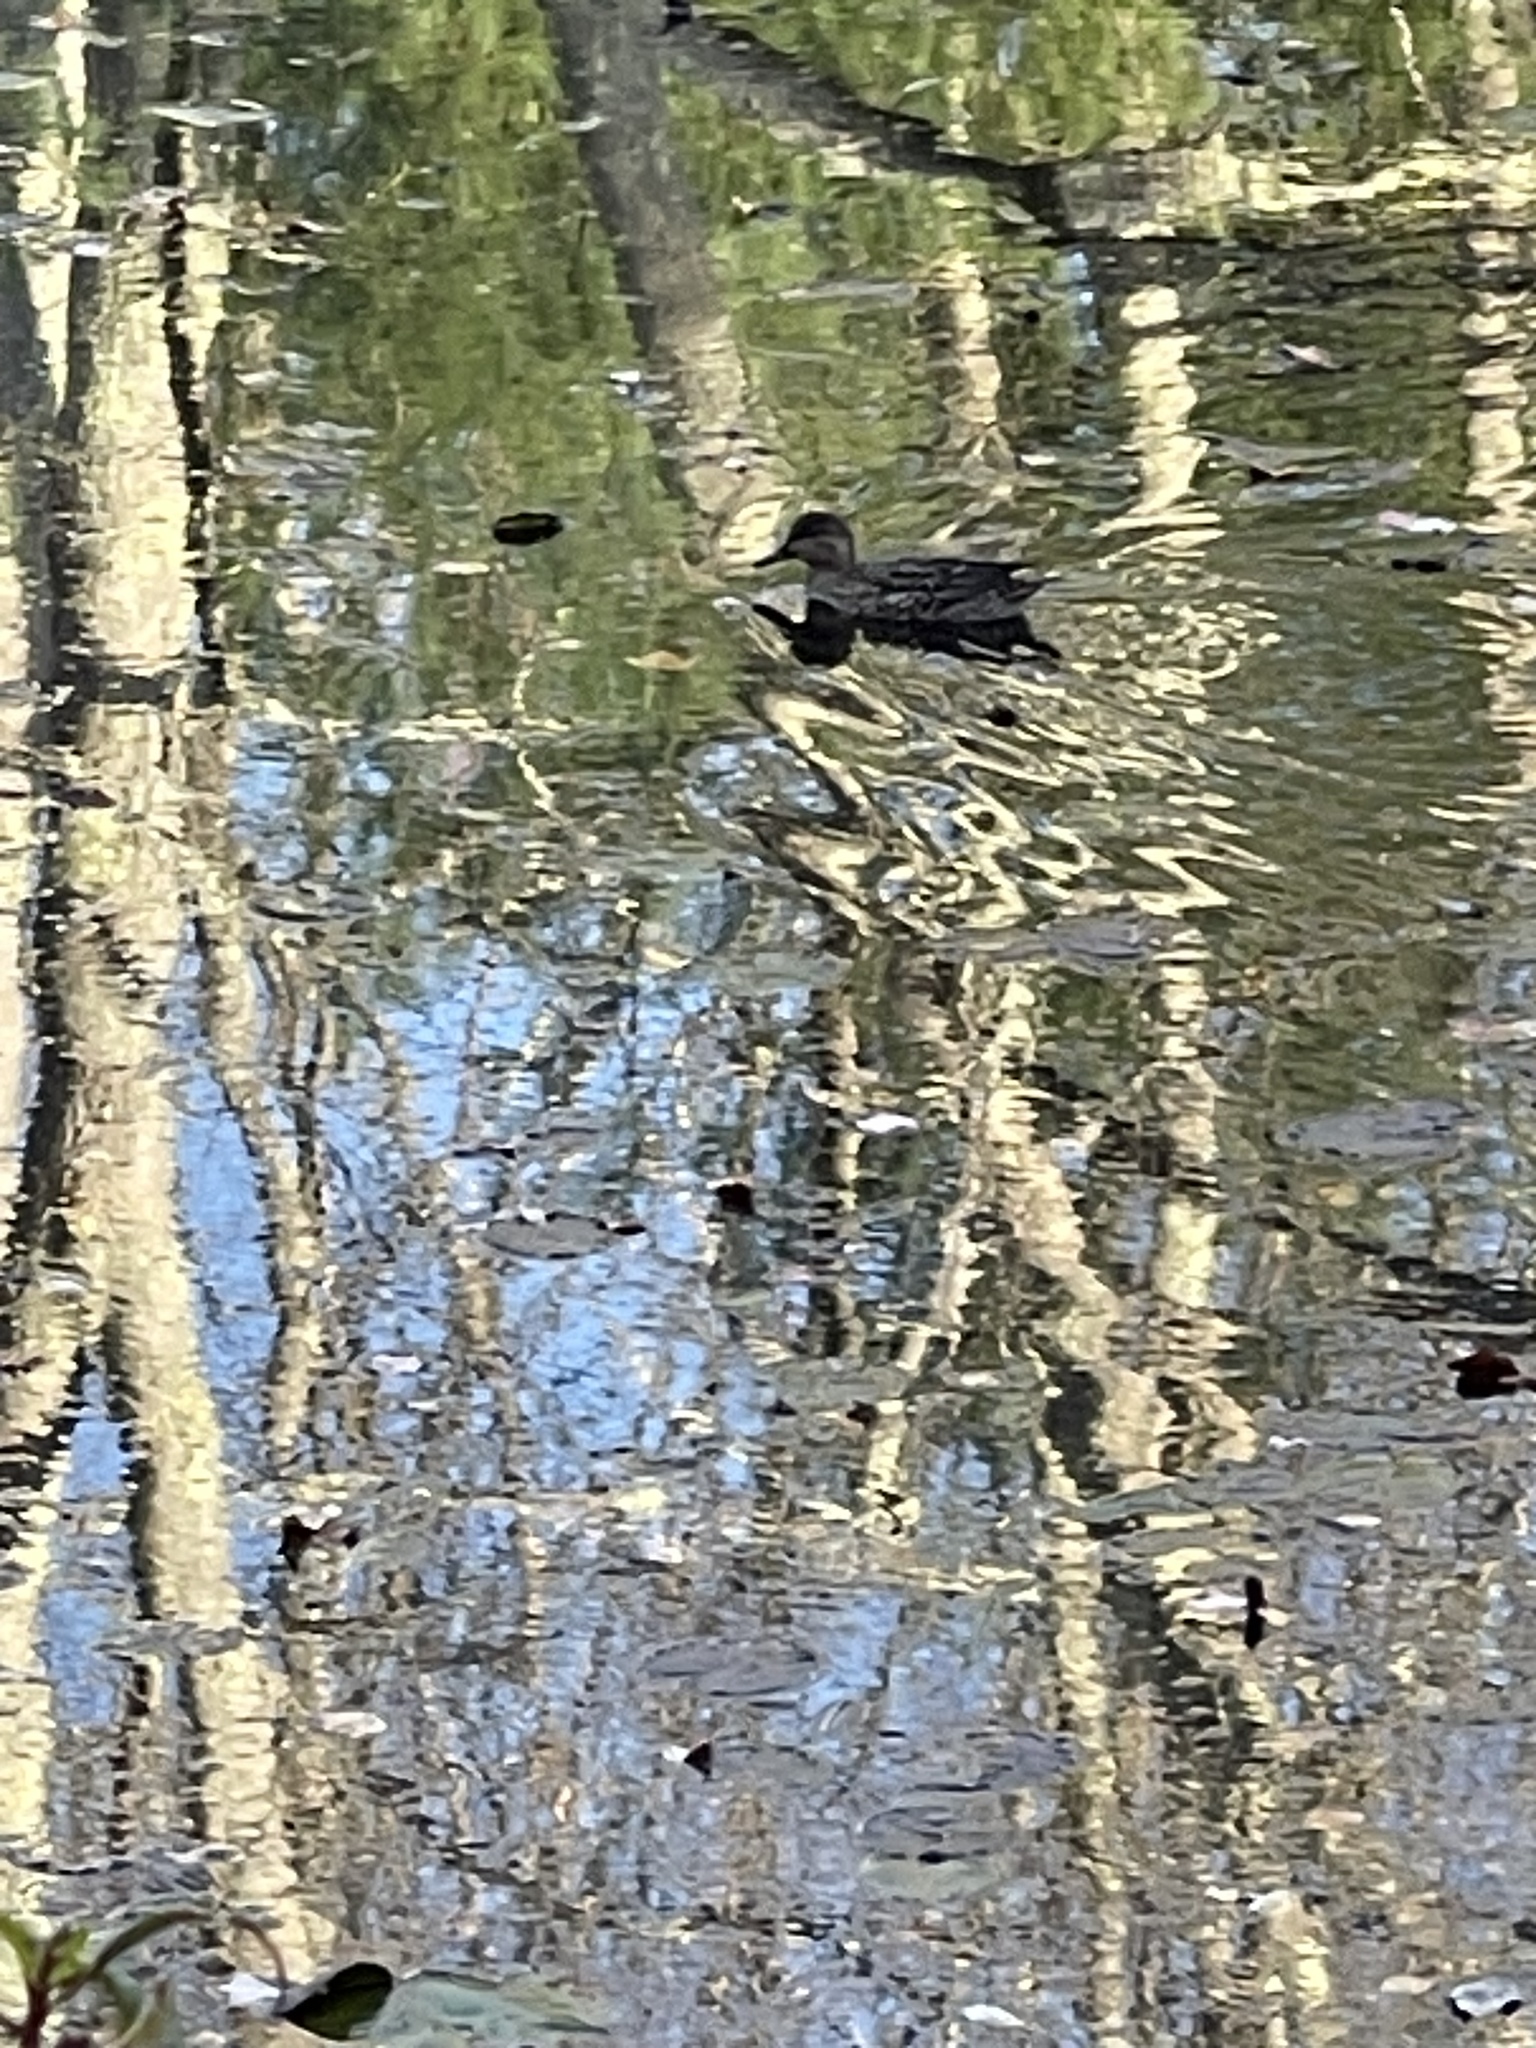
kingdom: Animalia
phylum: Chordata
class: Aves
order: Anseriformes
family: Anatidae
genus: Anas
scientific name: Anas crecca
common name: Eurasian teal
